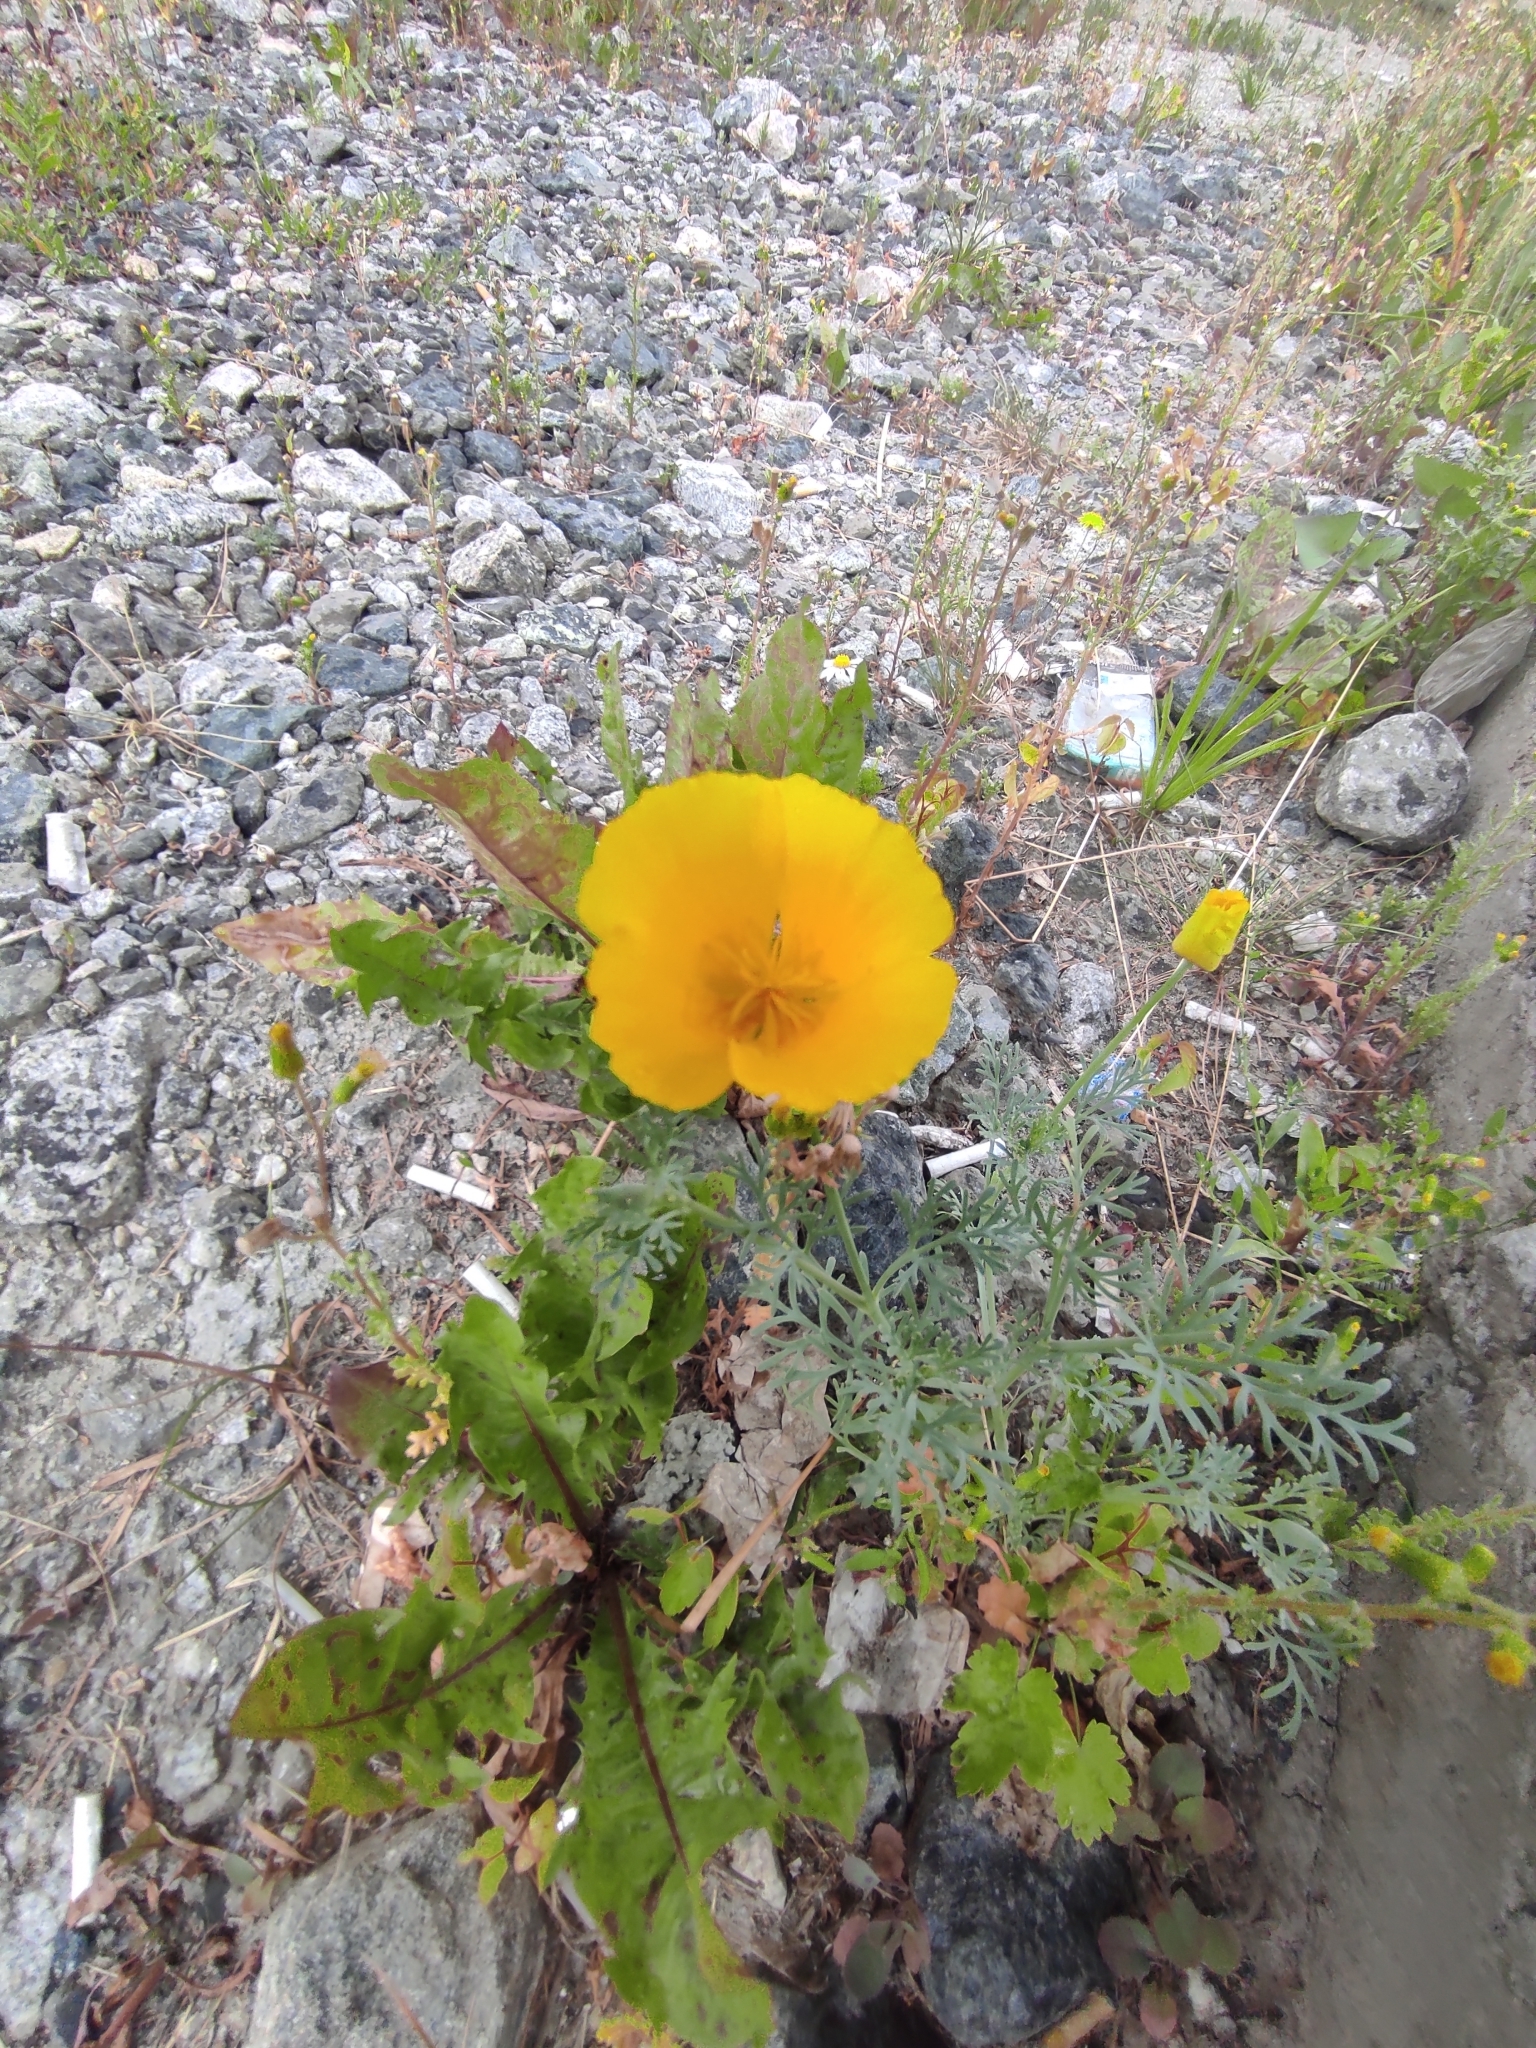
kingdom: Plantae
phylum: Tracheophyta
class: Magnoliopsida
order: Ranunculales
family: Papaveraceae
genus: Eschscholzia
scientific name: Eschscholzia californica
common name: California poppy
